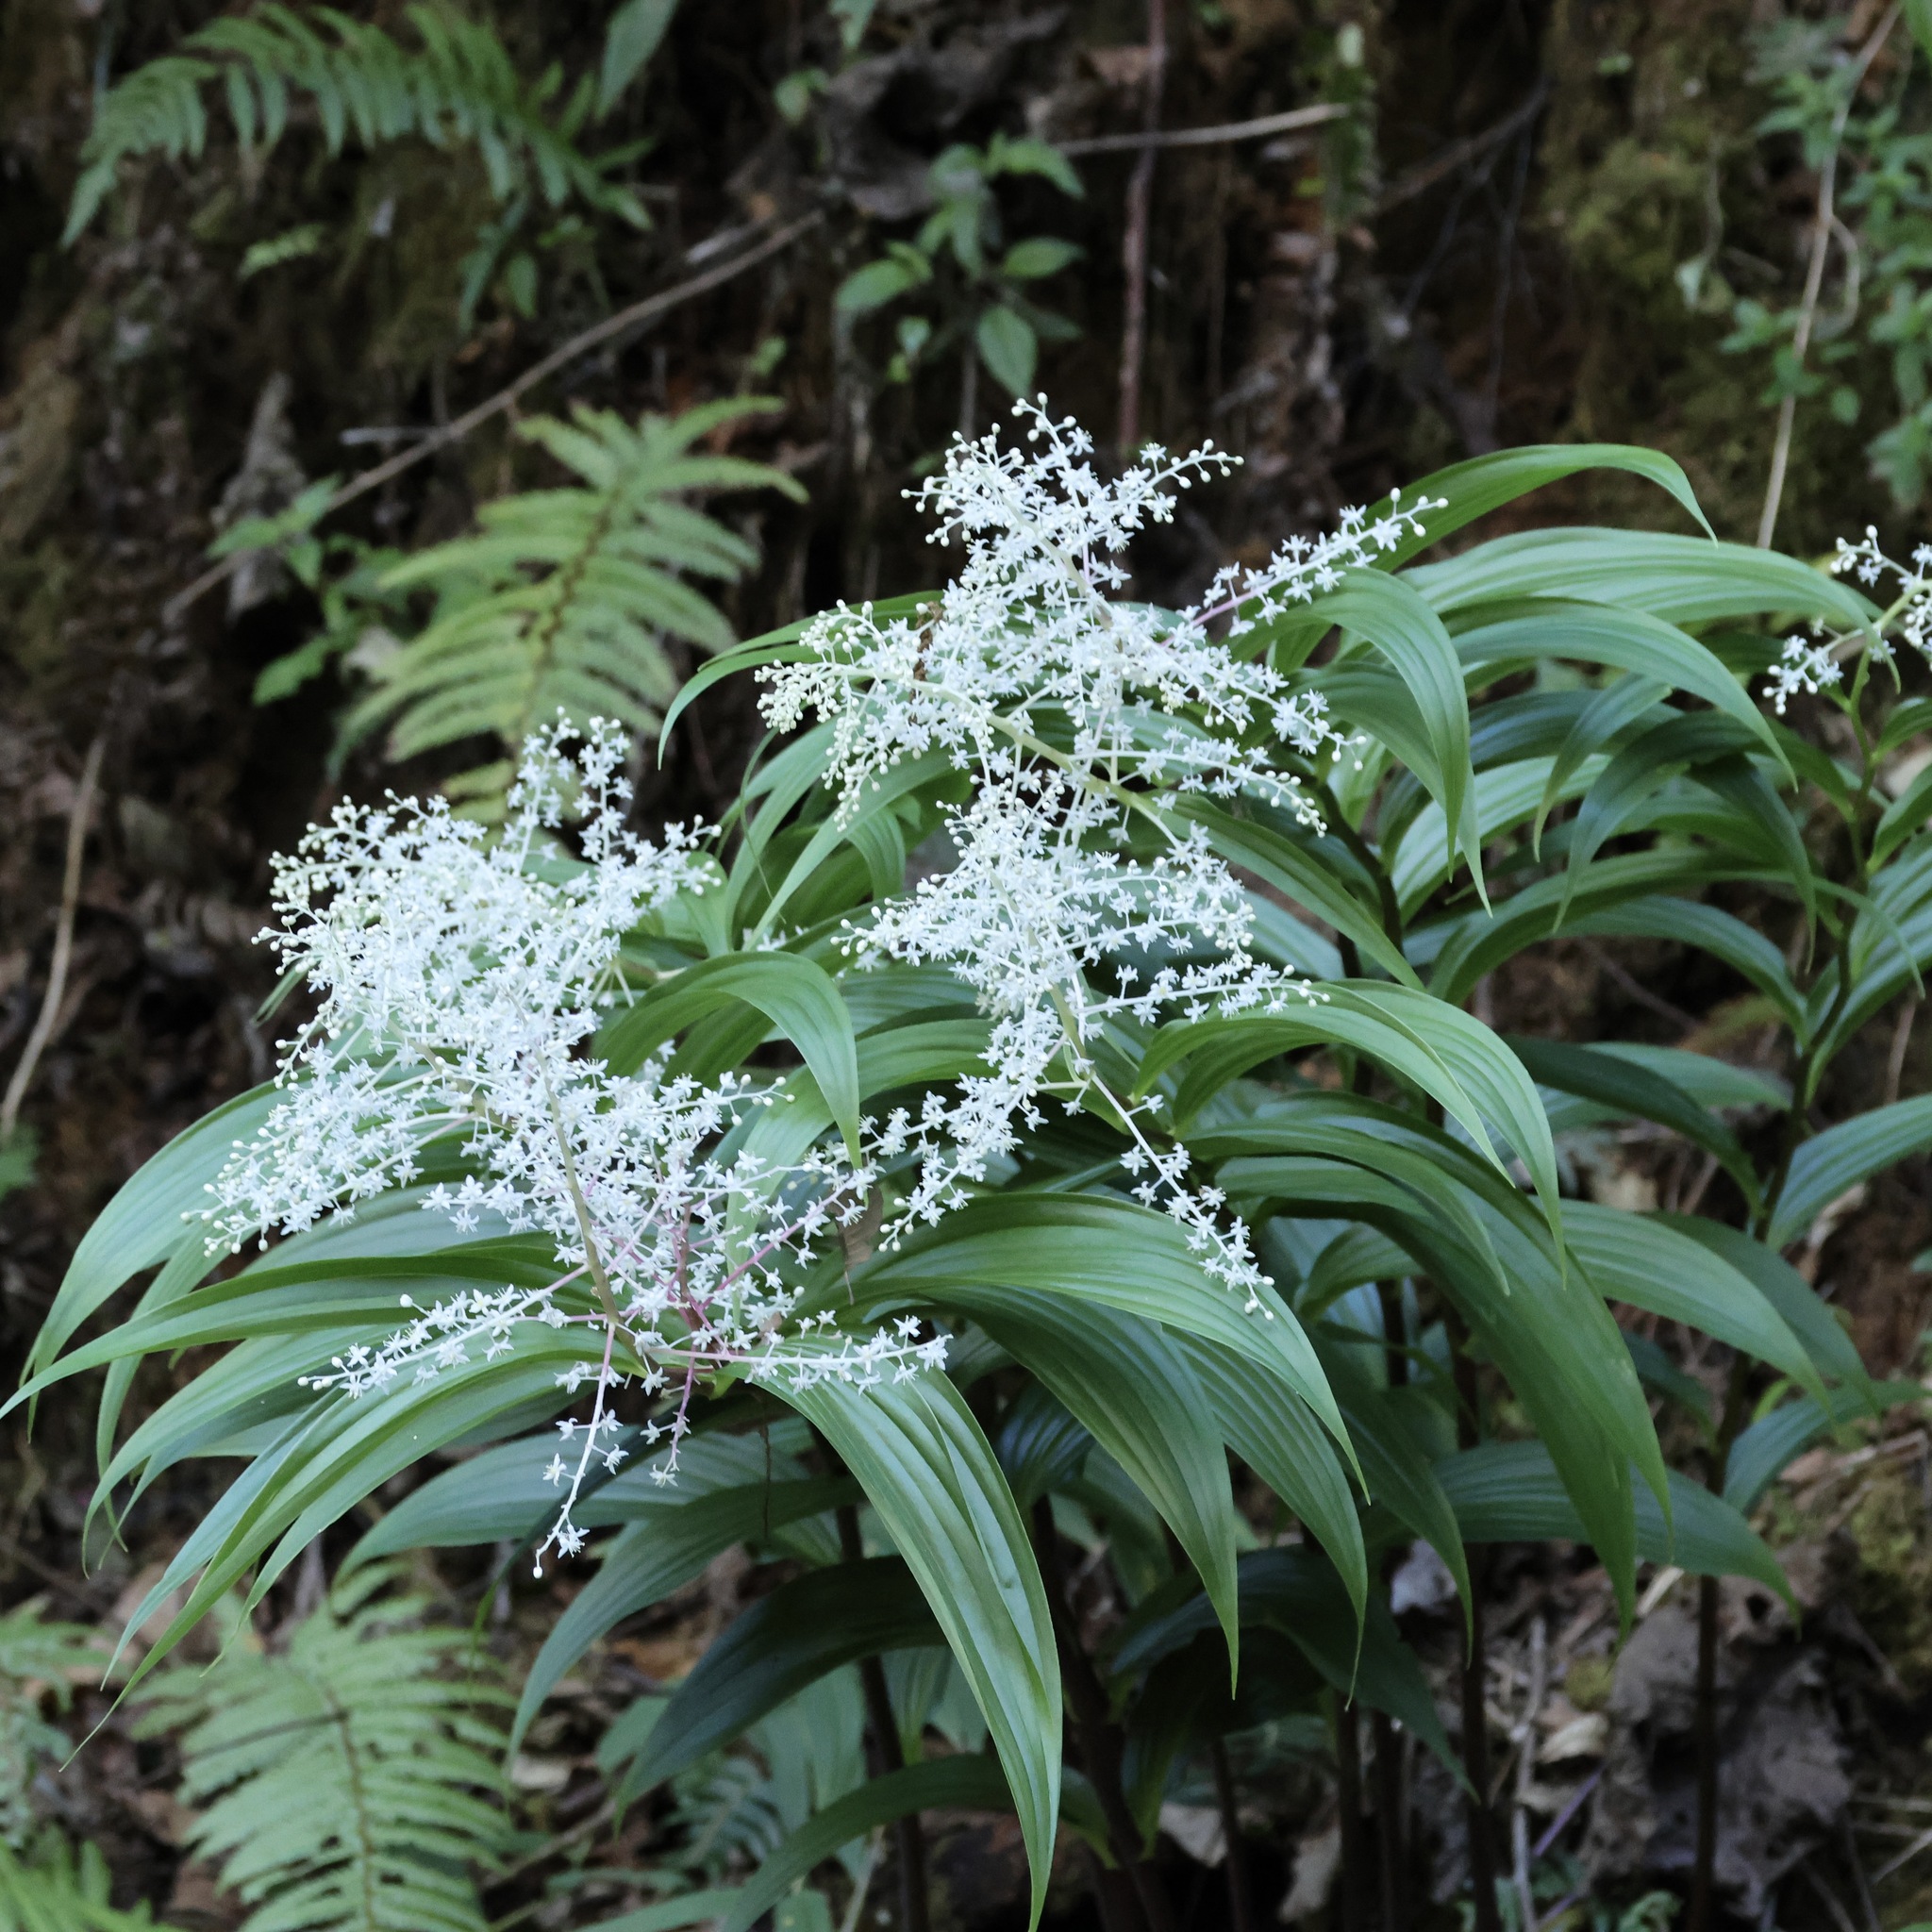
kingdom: Plantae
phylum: Tracheophyta
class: Liliopsida
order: Asparagales
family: Asparagaceae
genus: Maianthemum
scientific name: Maianthemum gigas
